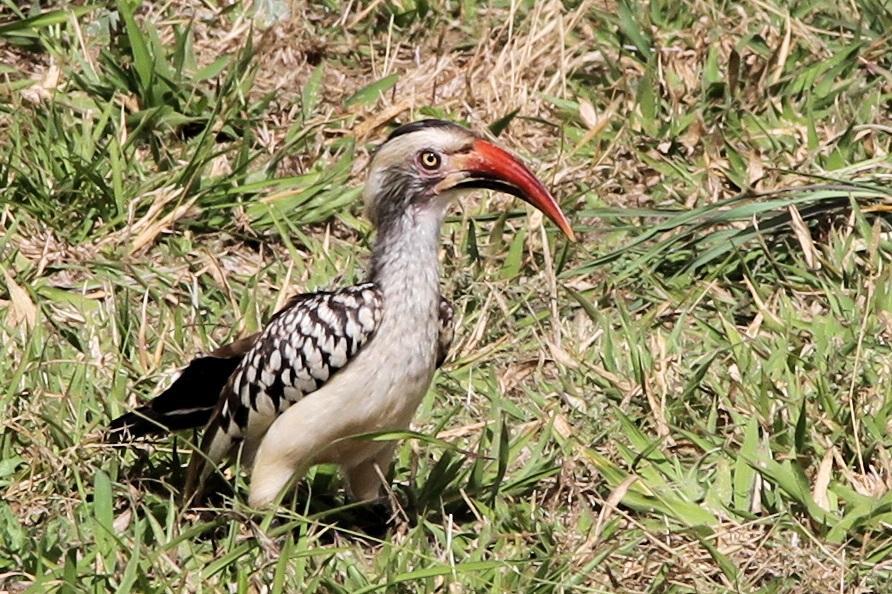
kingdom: Animalia
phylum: Chordata
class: Aves
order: Bucerotiformes
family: Bucerotidae
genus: Tockus
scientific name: Tockus rufirostris
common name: Southern red-billed hornbill
